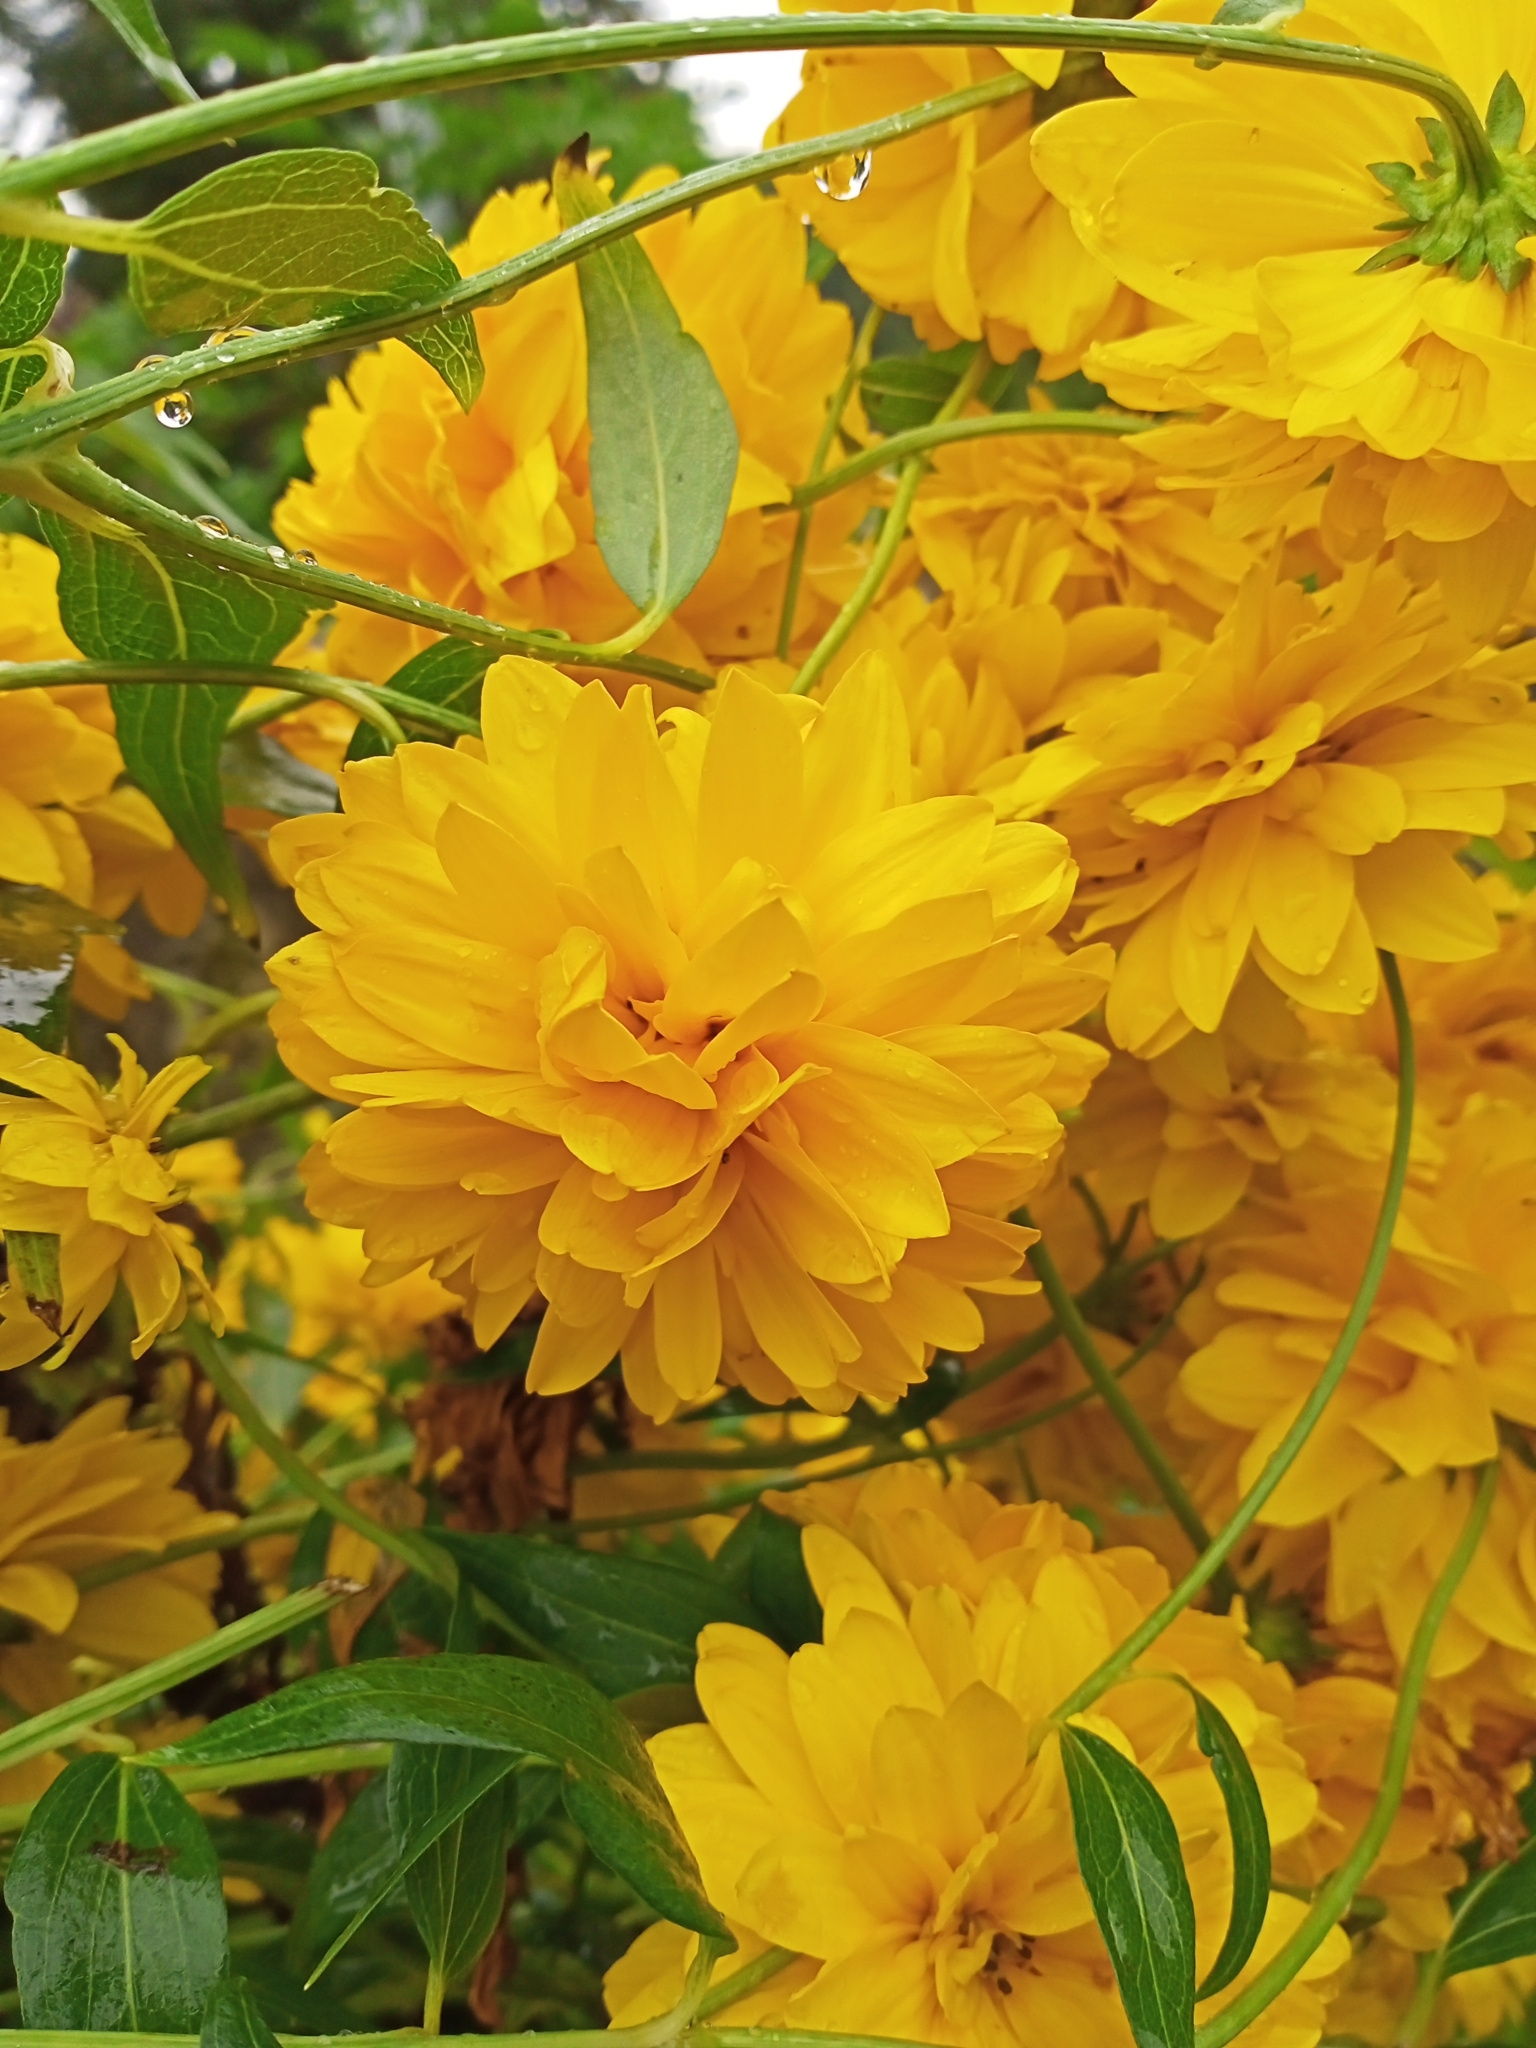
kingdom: Plantae
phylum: Tracheophyta
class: Magnoliopsida
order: Asterales
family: Asteraceae
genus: Rudbeckia
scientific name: Rudbeckia laciniata
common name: Coneflower
